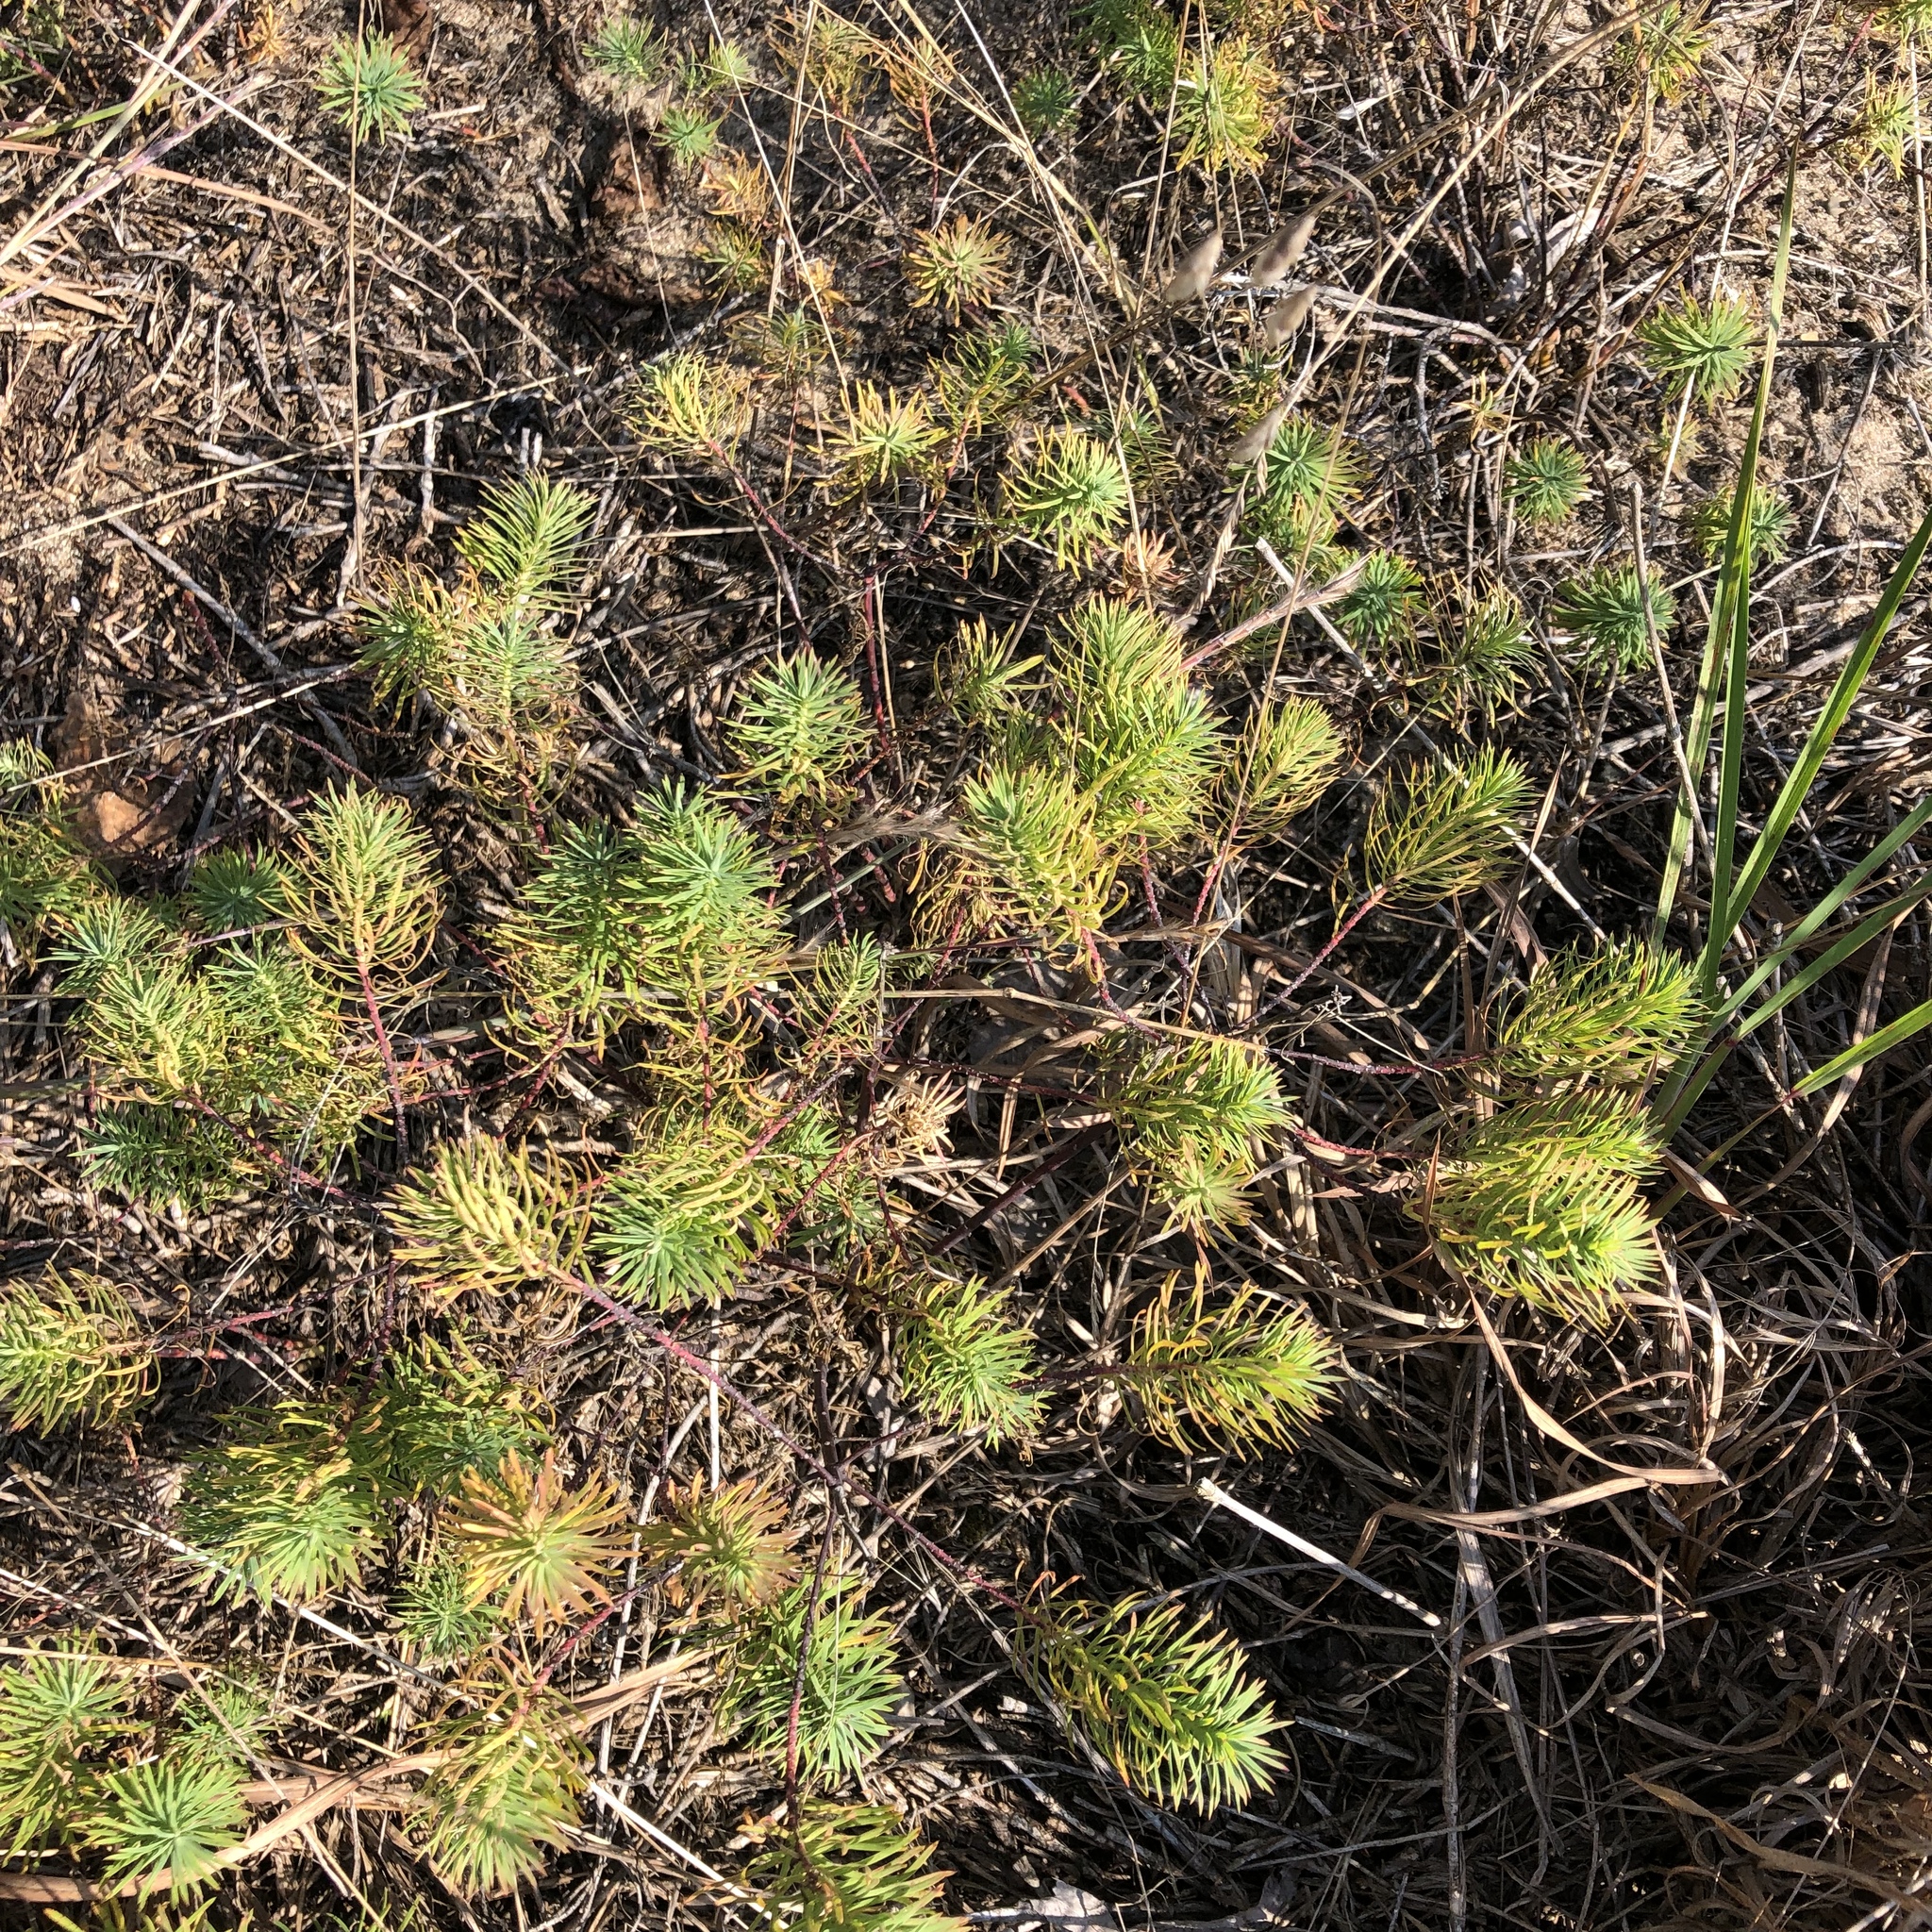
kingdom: Plantae
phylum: Tracheophyta
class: Magnoliopsida
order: Malpighiales
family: Euphorbiaceae
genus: Euphorbia
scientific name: Euphorbia cyparissias
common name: Cypress spurge
